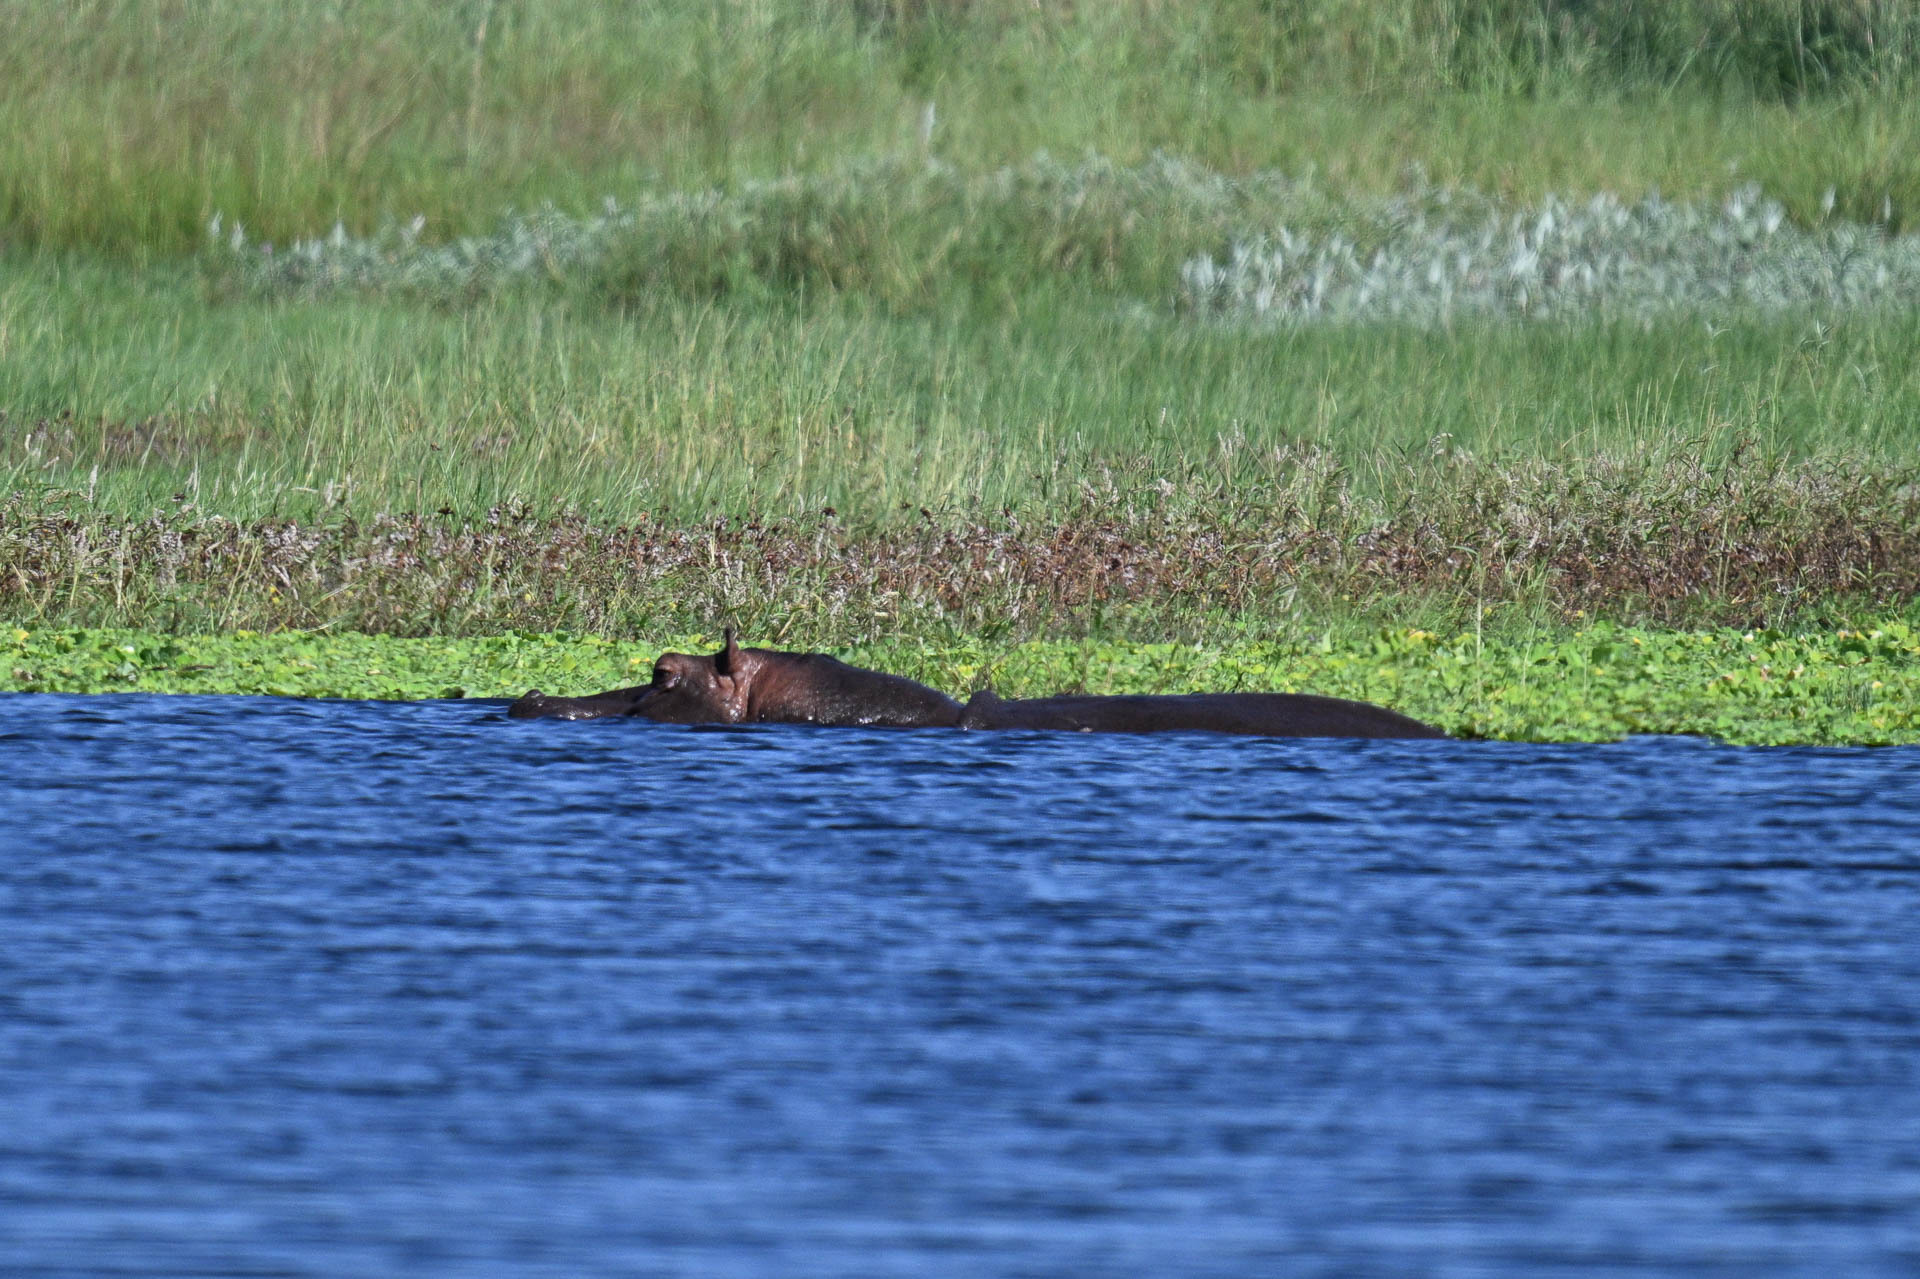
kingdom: Animalia
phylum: Chordata
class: Mammalia
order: Artiodactyla
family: Hippopotamidae
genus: Hippopotamus
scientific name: Hippopotamus amphibius
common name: Common hippopotamus
